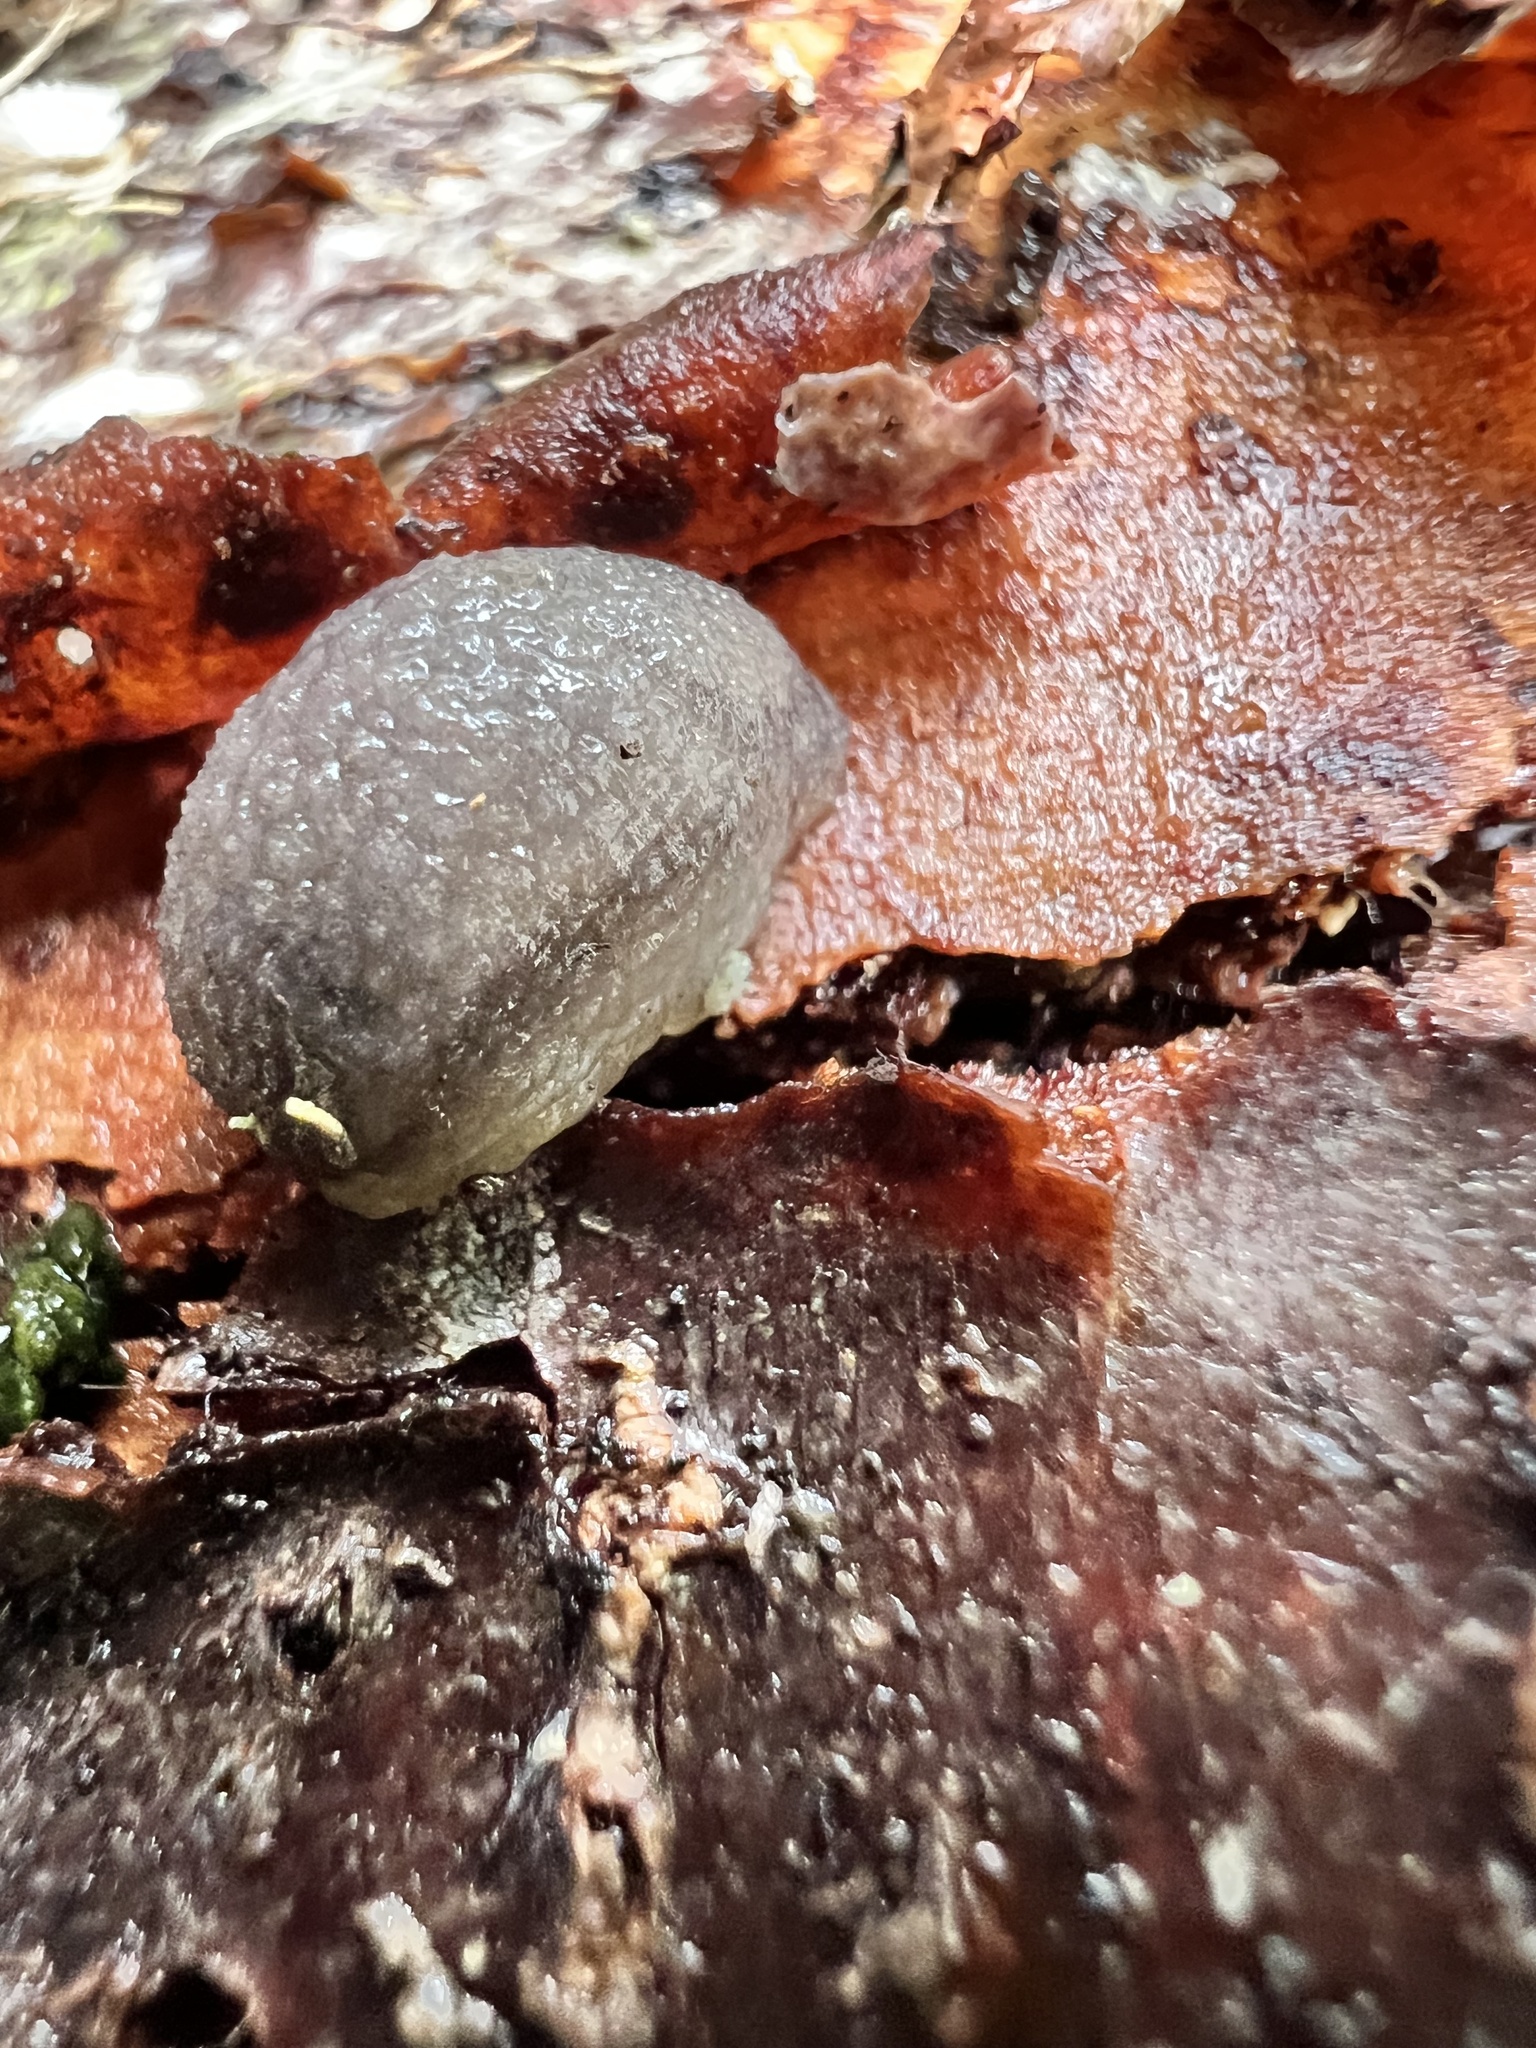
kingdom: Animalia
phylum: Mollusca
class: Gastropoda
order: Stylommatophora
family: Arionidae
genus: Arion
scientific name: Arion intermedius
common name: Hedgehog slug
